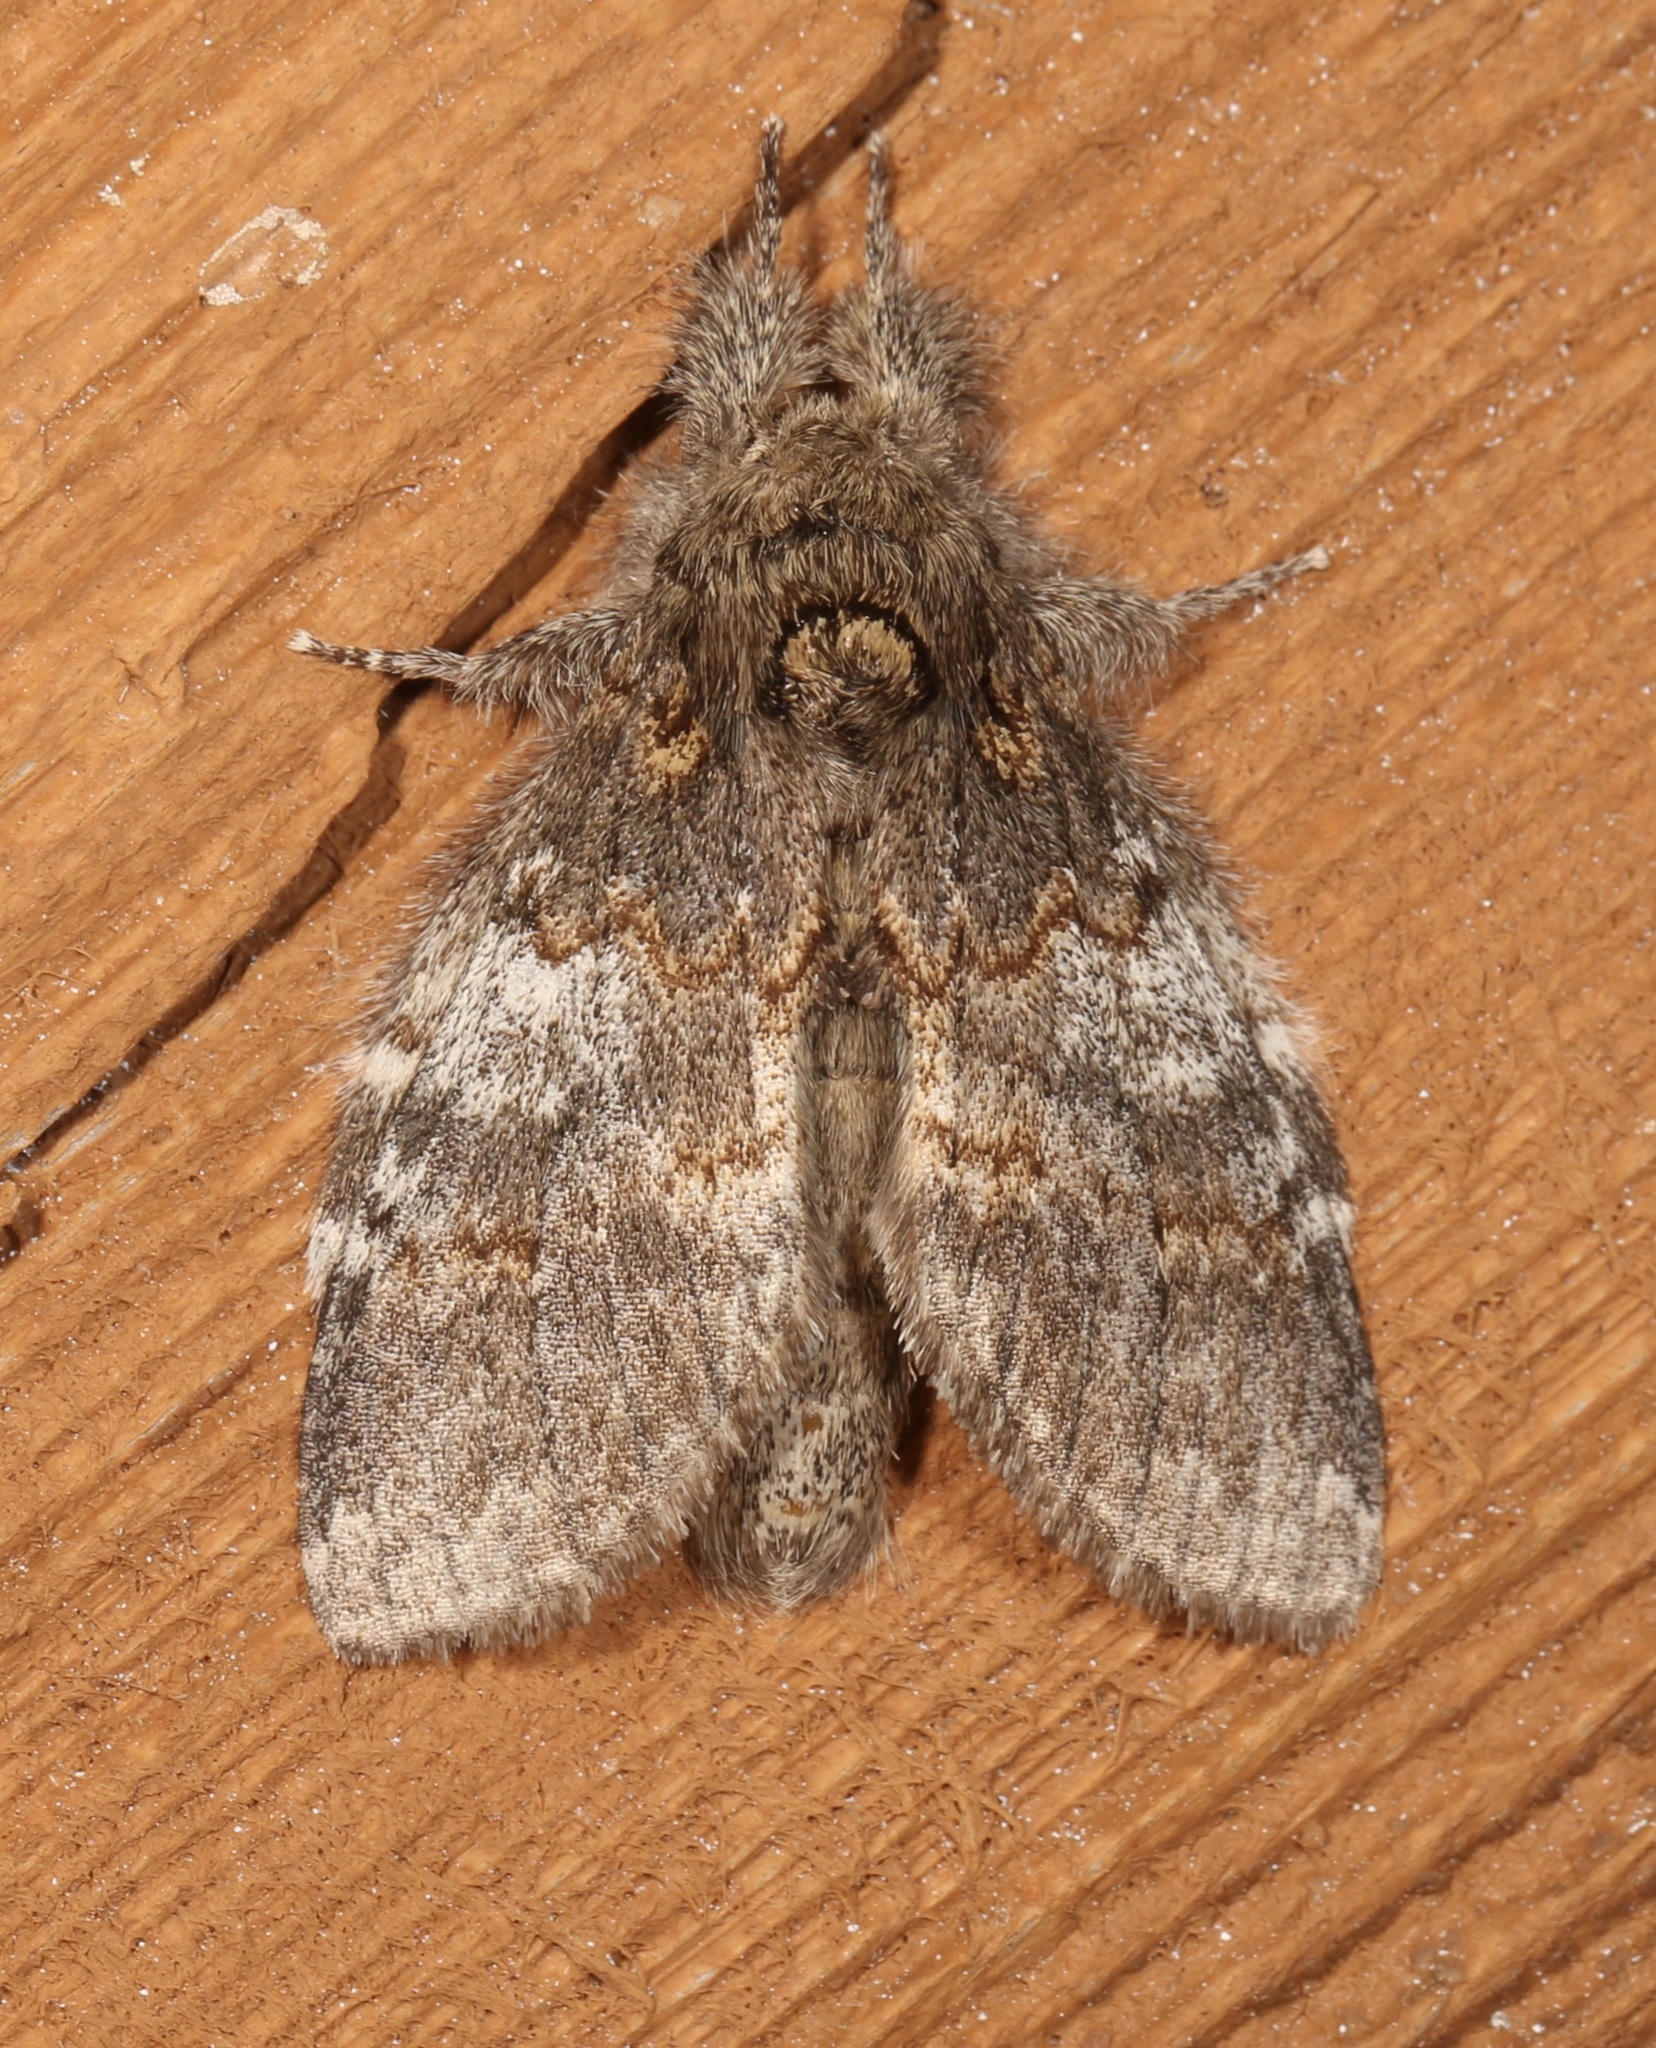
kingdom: Animalia
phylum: Arthropoda
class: Insecta
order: Lepidoptera
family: Notodontidae
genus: Peridea
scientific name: Peridea angulosa
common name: Angulose prominent
